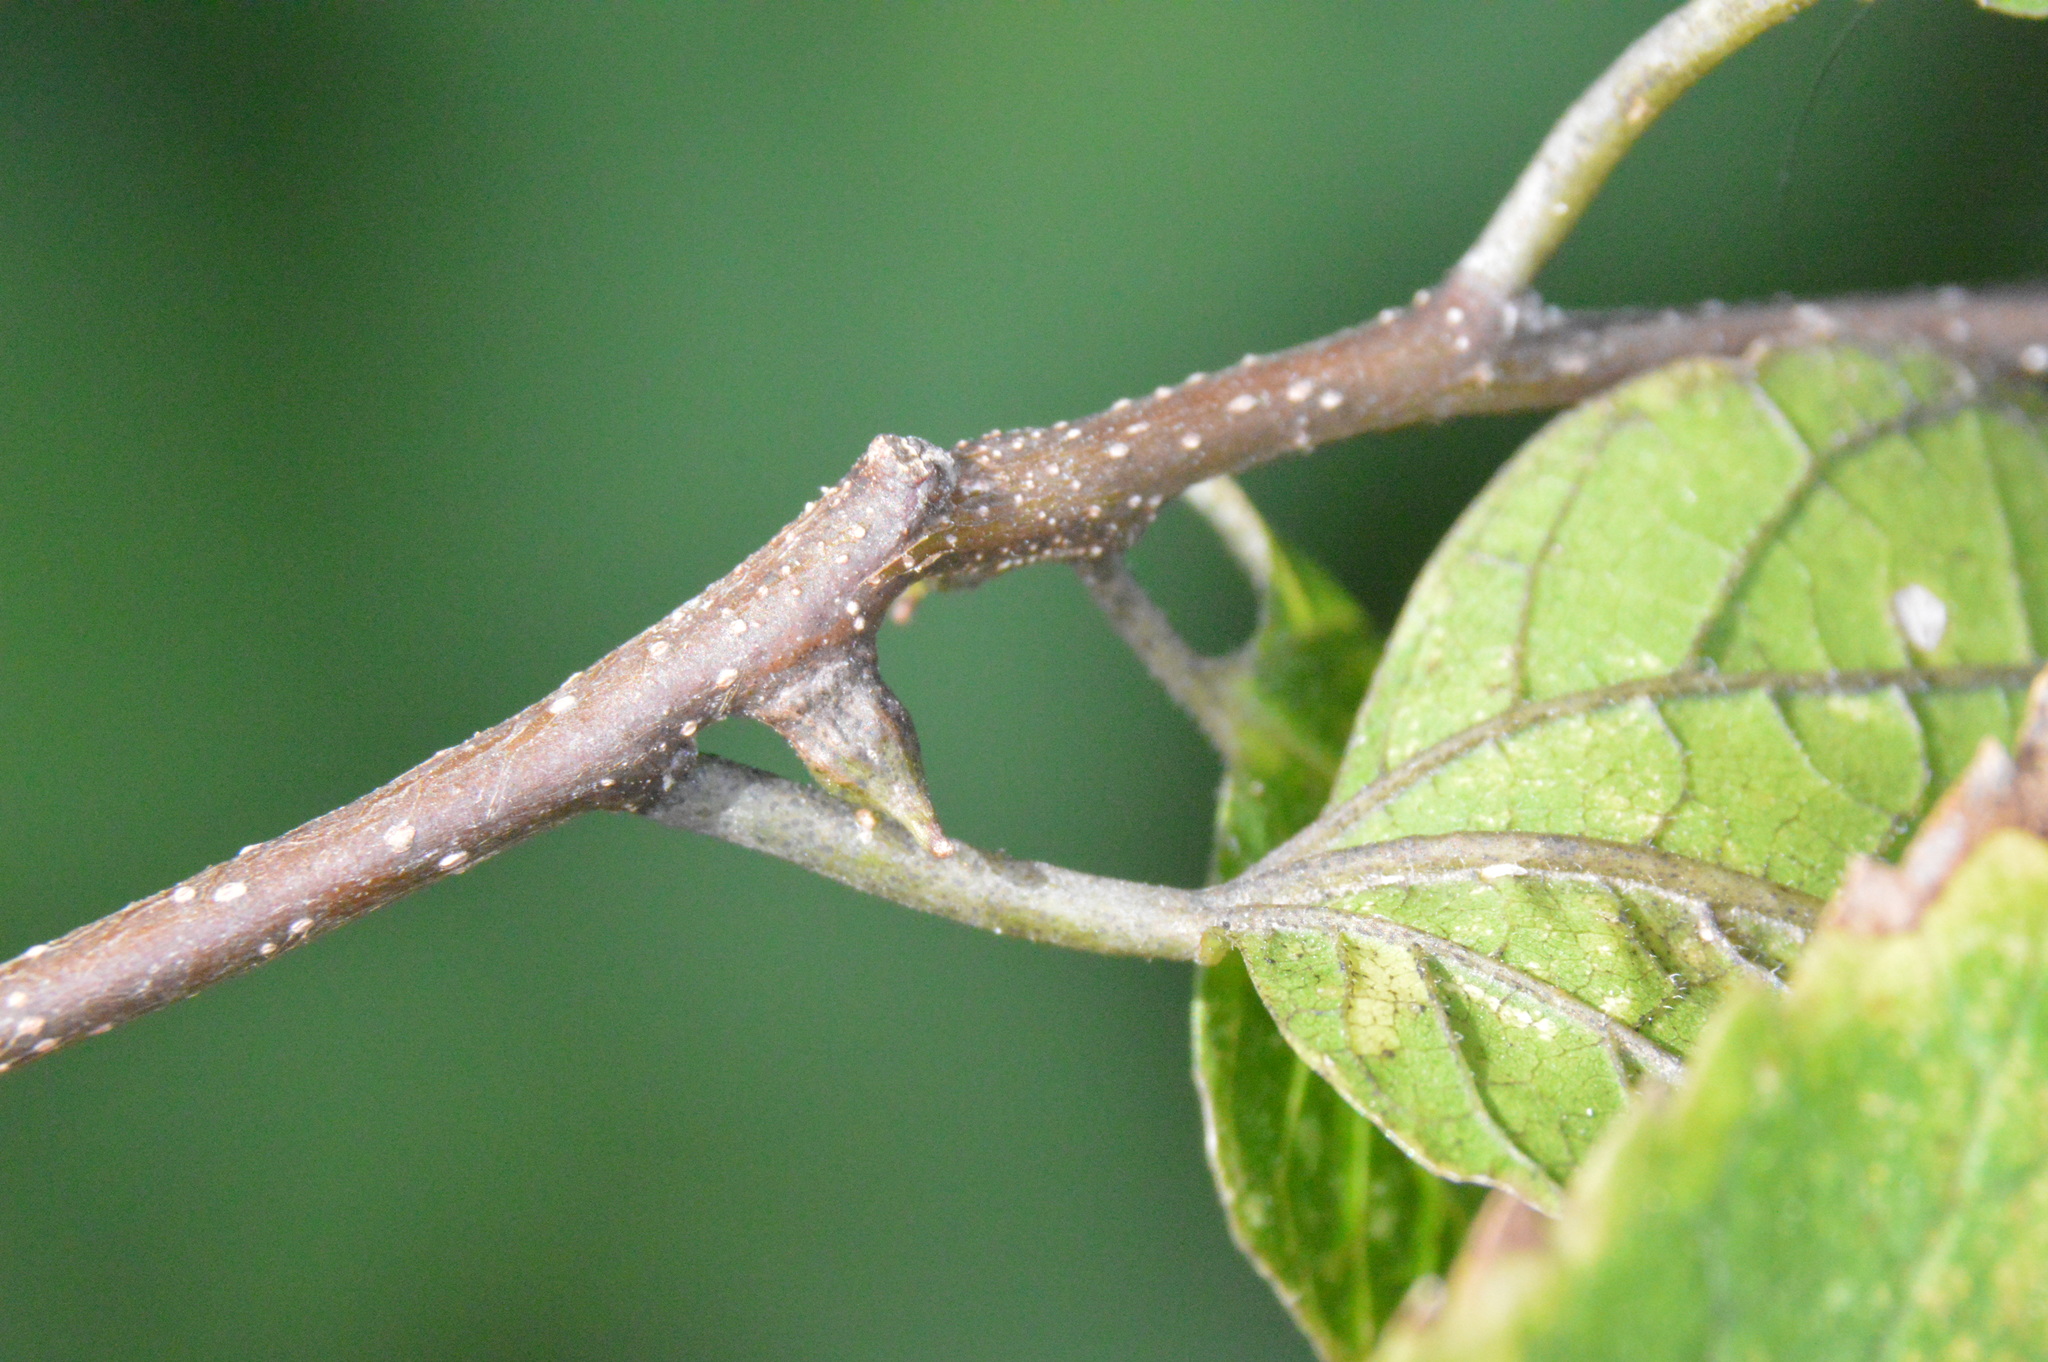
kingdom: Animalia
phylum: Arthropoda
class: Insecta
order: Diptera
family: Cecidomyiidae
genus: Celticecis
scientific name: Celticecis ramicola
